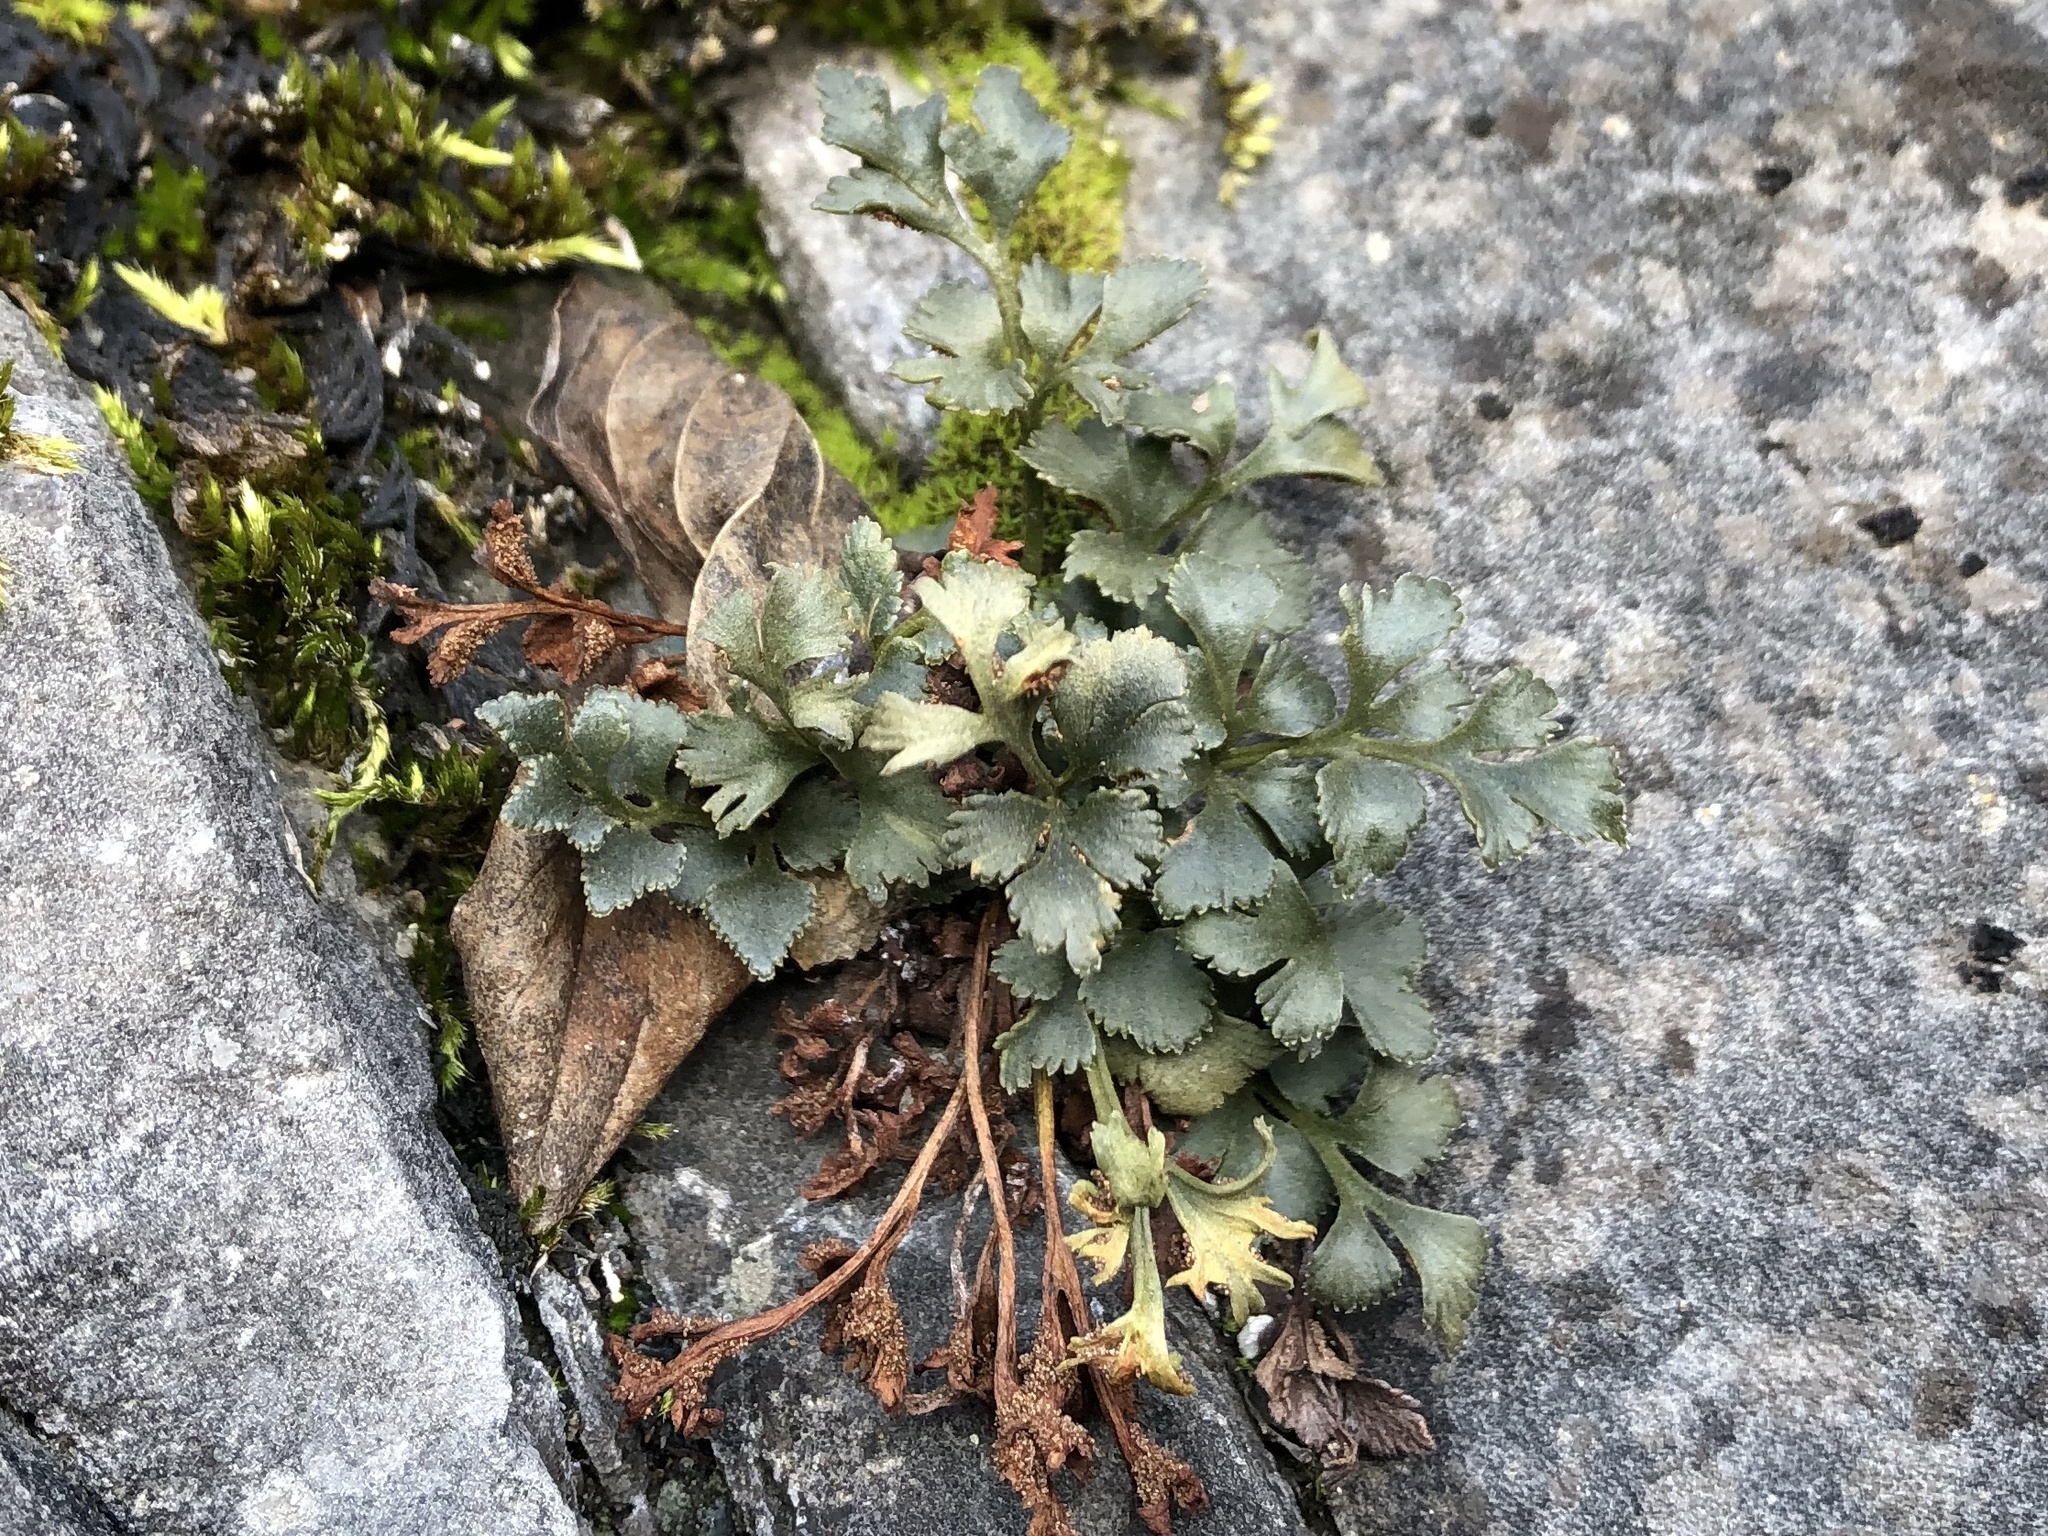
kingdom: Plantae
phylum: Tracheophyta
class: Polypodiopsida
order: Polypodiales
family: Aspleniaceae
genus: Asplenium
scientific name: Asplenium ruta-muraria
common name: Wall-rue
